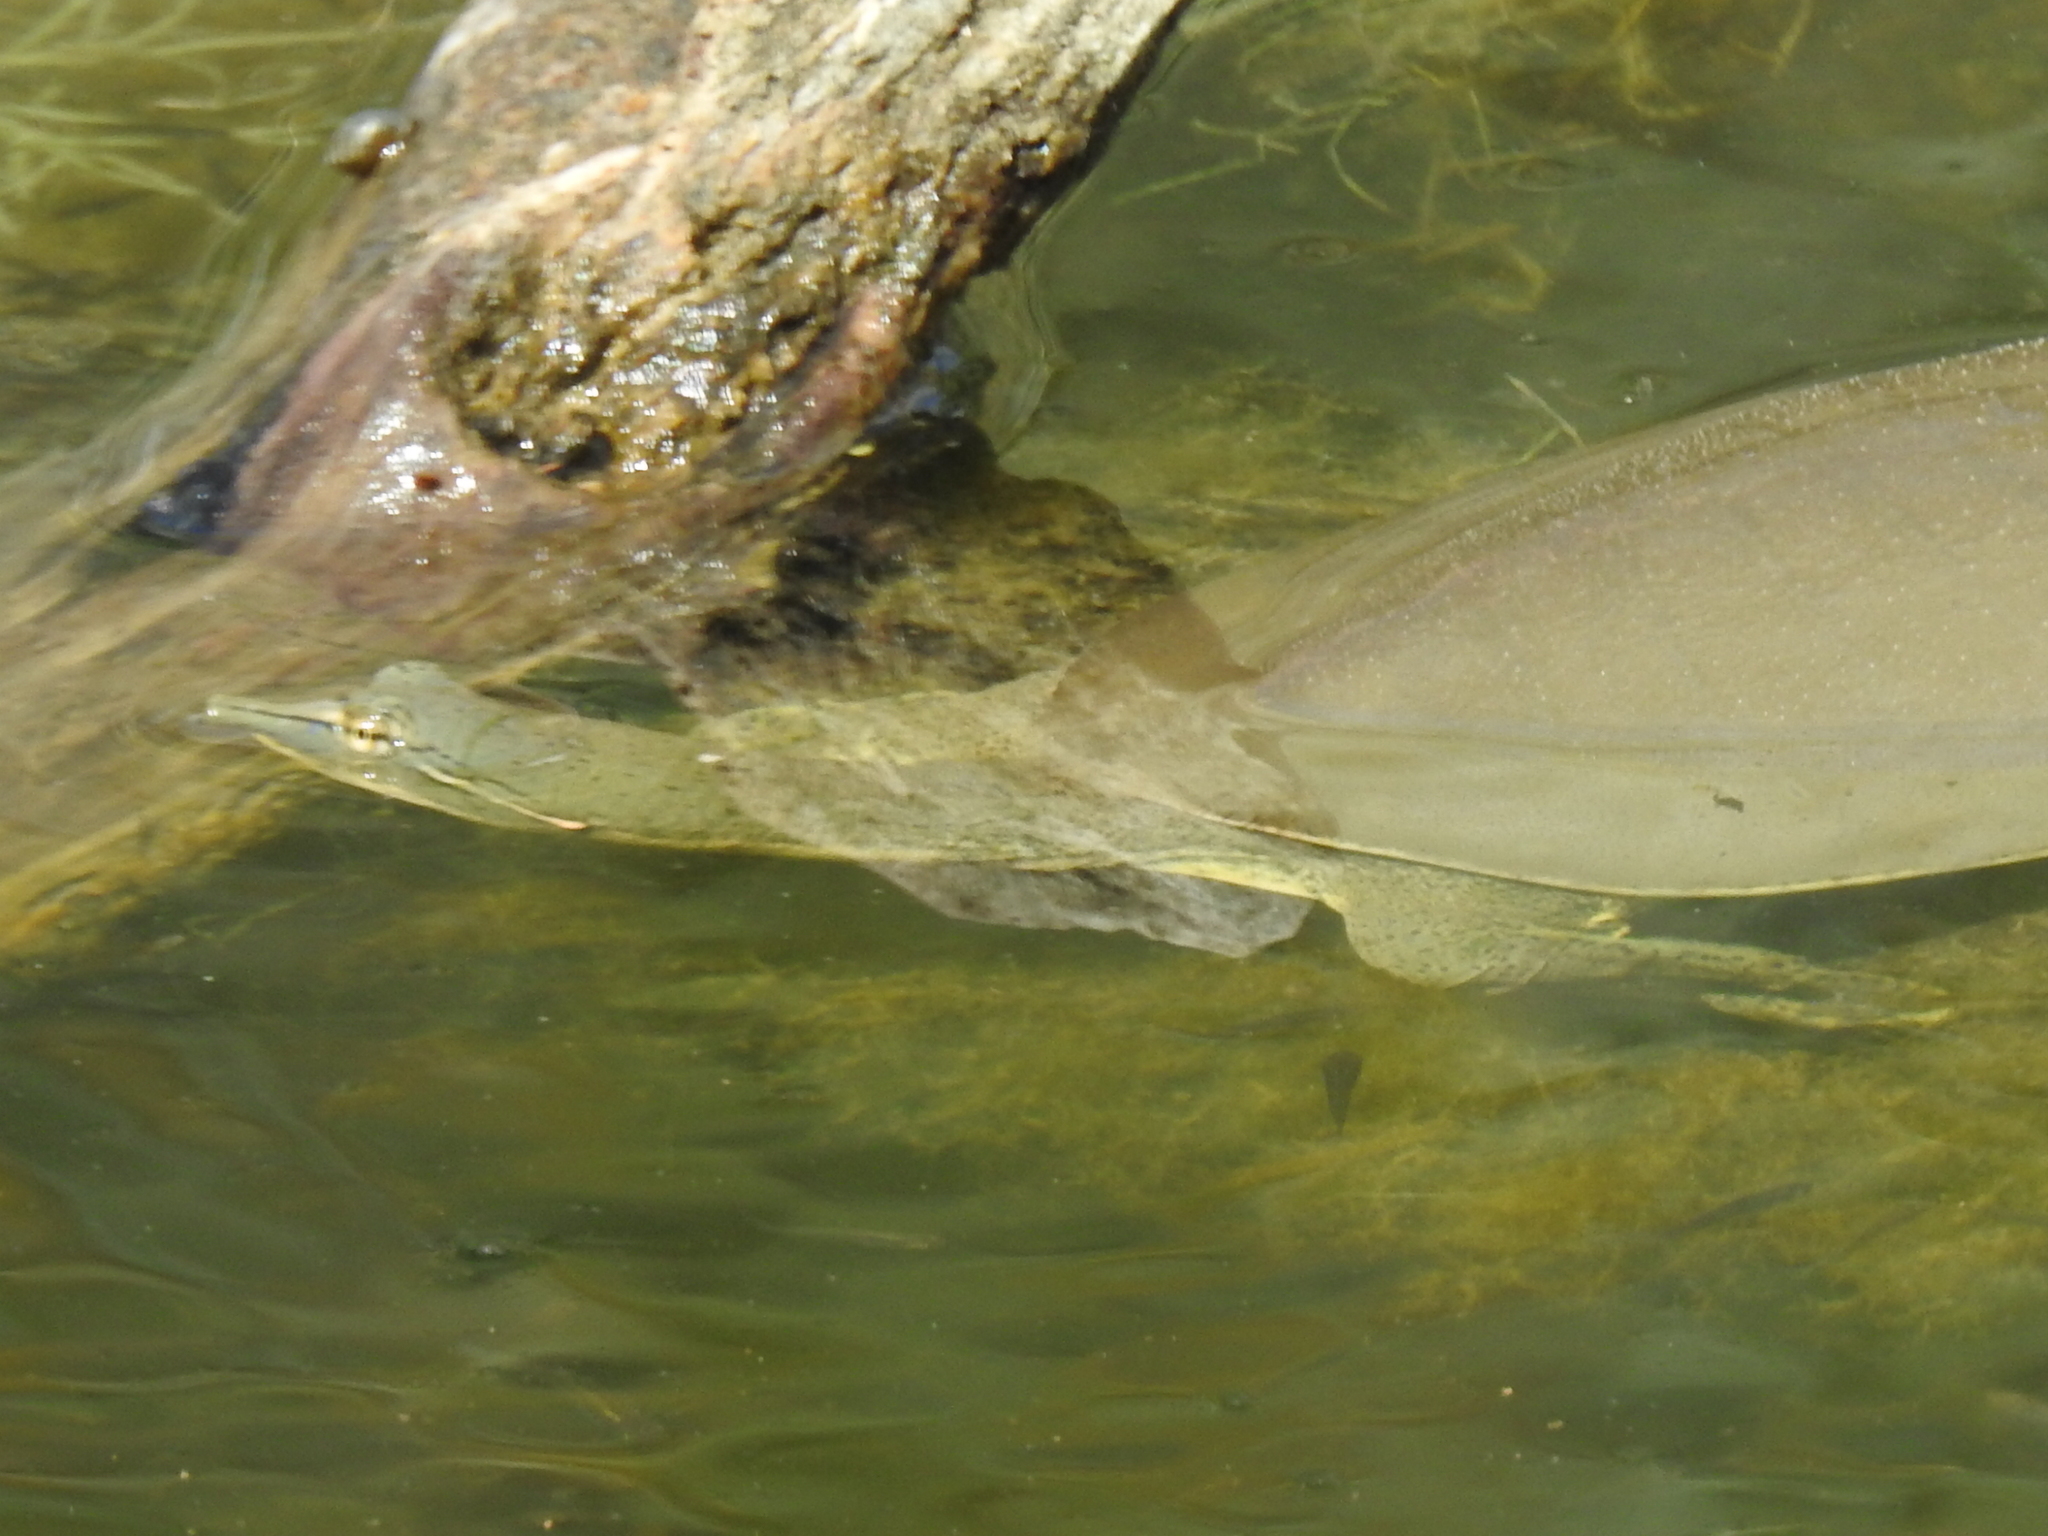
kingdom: Animalia
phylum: Chordata
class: Testudines
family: Trionychidae
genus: Apalone
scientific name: Apalone spinifera
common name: Spiny softshell turtle
